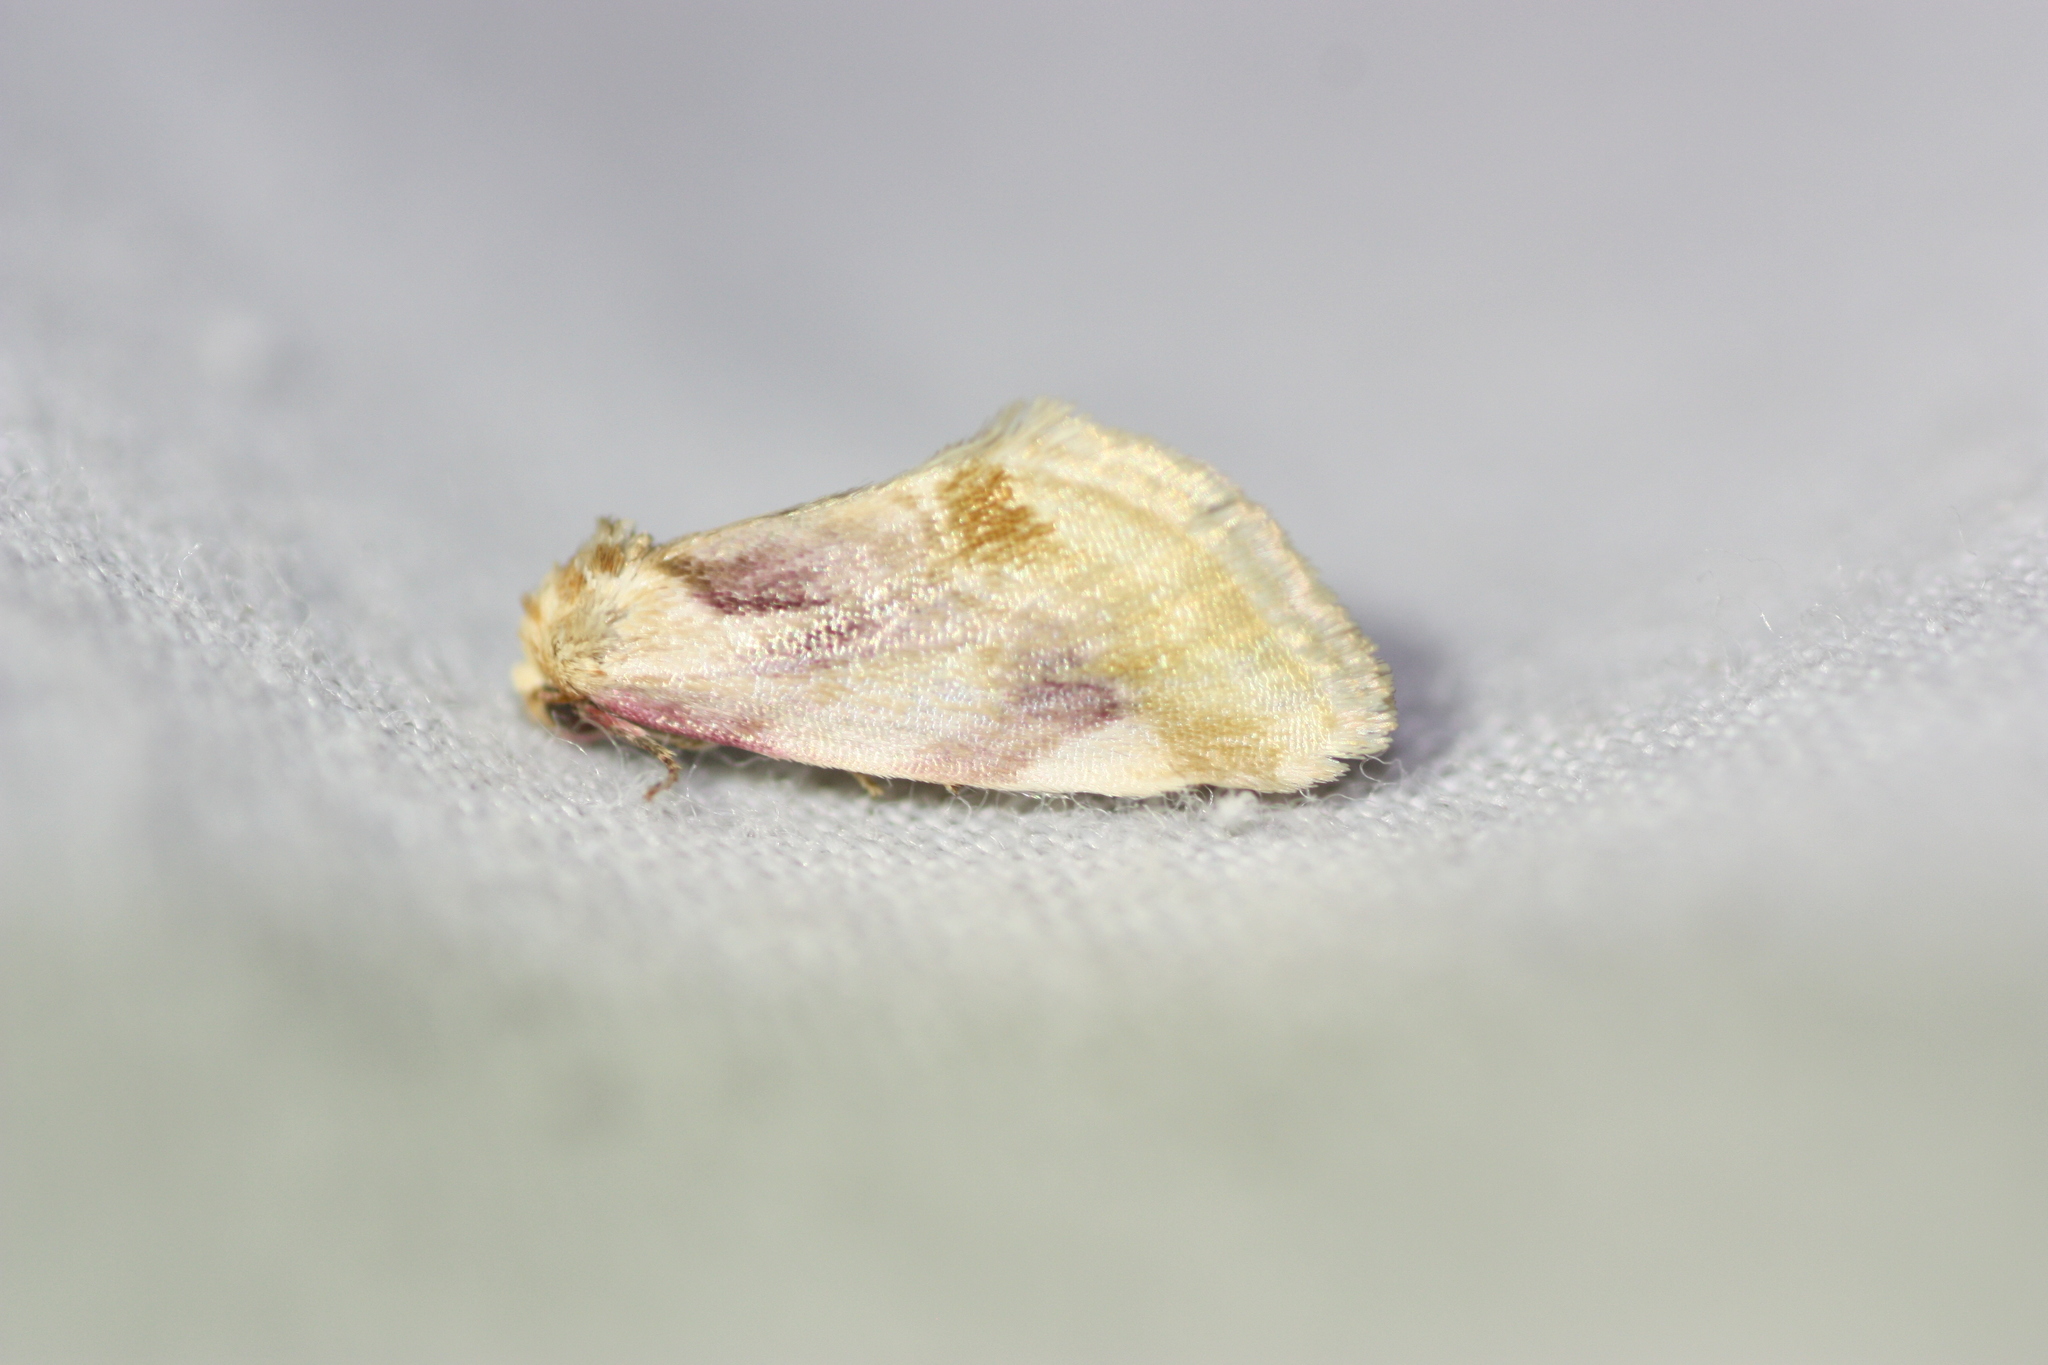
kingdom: Animalia
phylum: Arthropoda
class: Insecta
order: Lepidoptera
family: Noctuidae
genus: Chamaeclea
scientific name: Chamaeclea pernana
